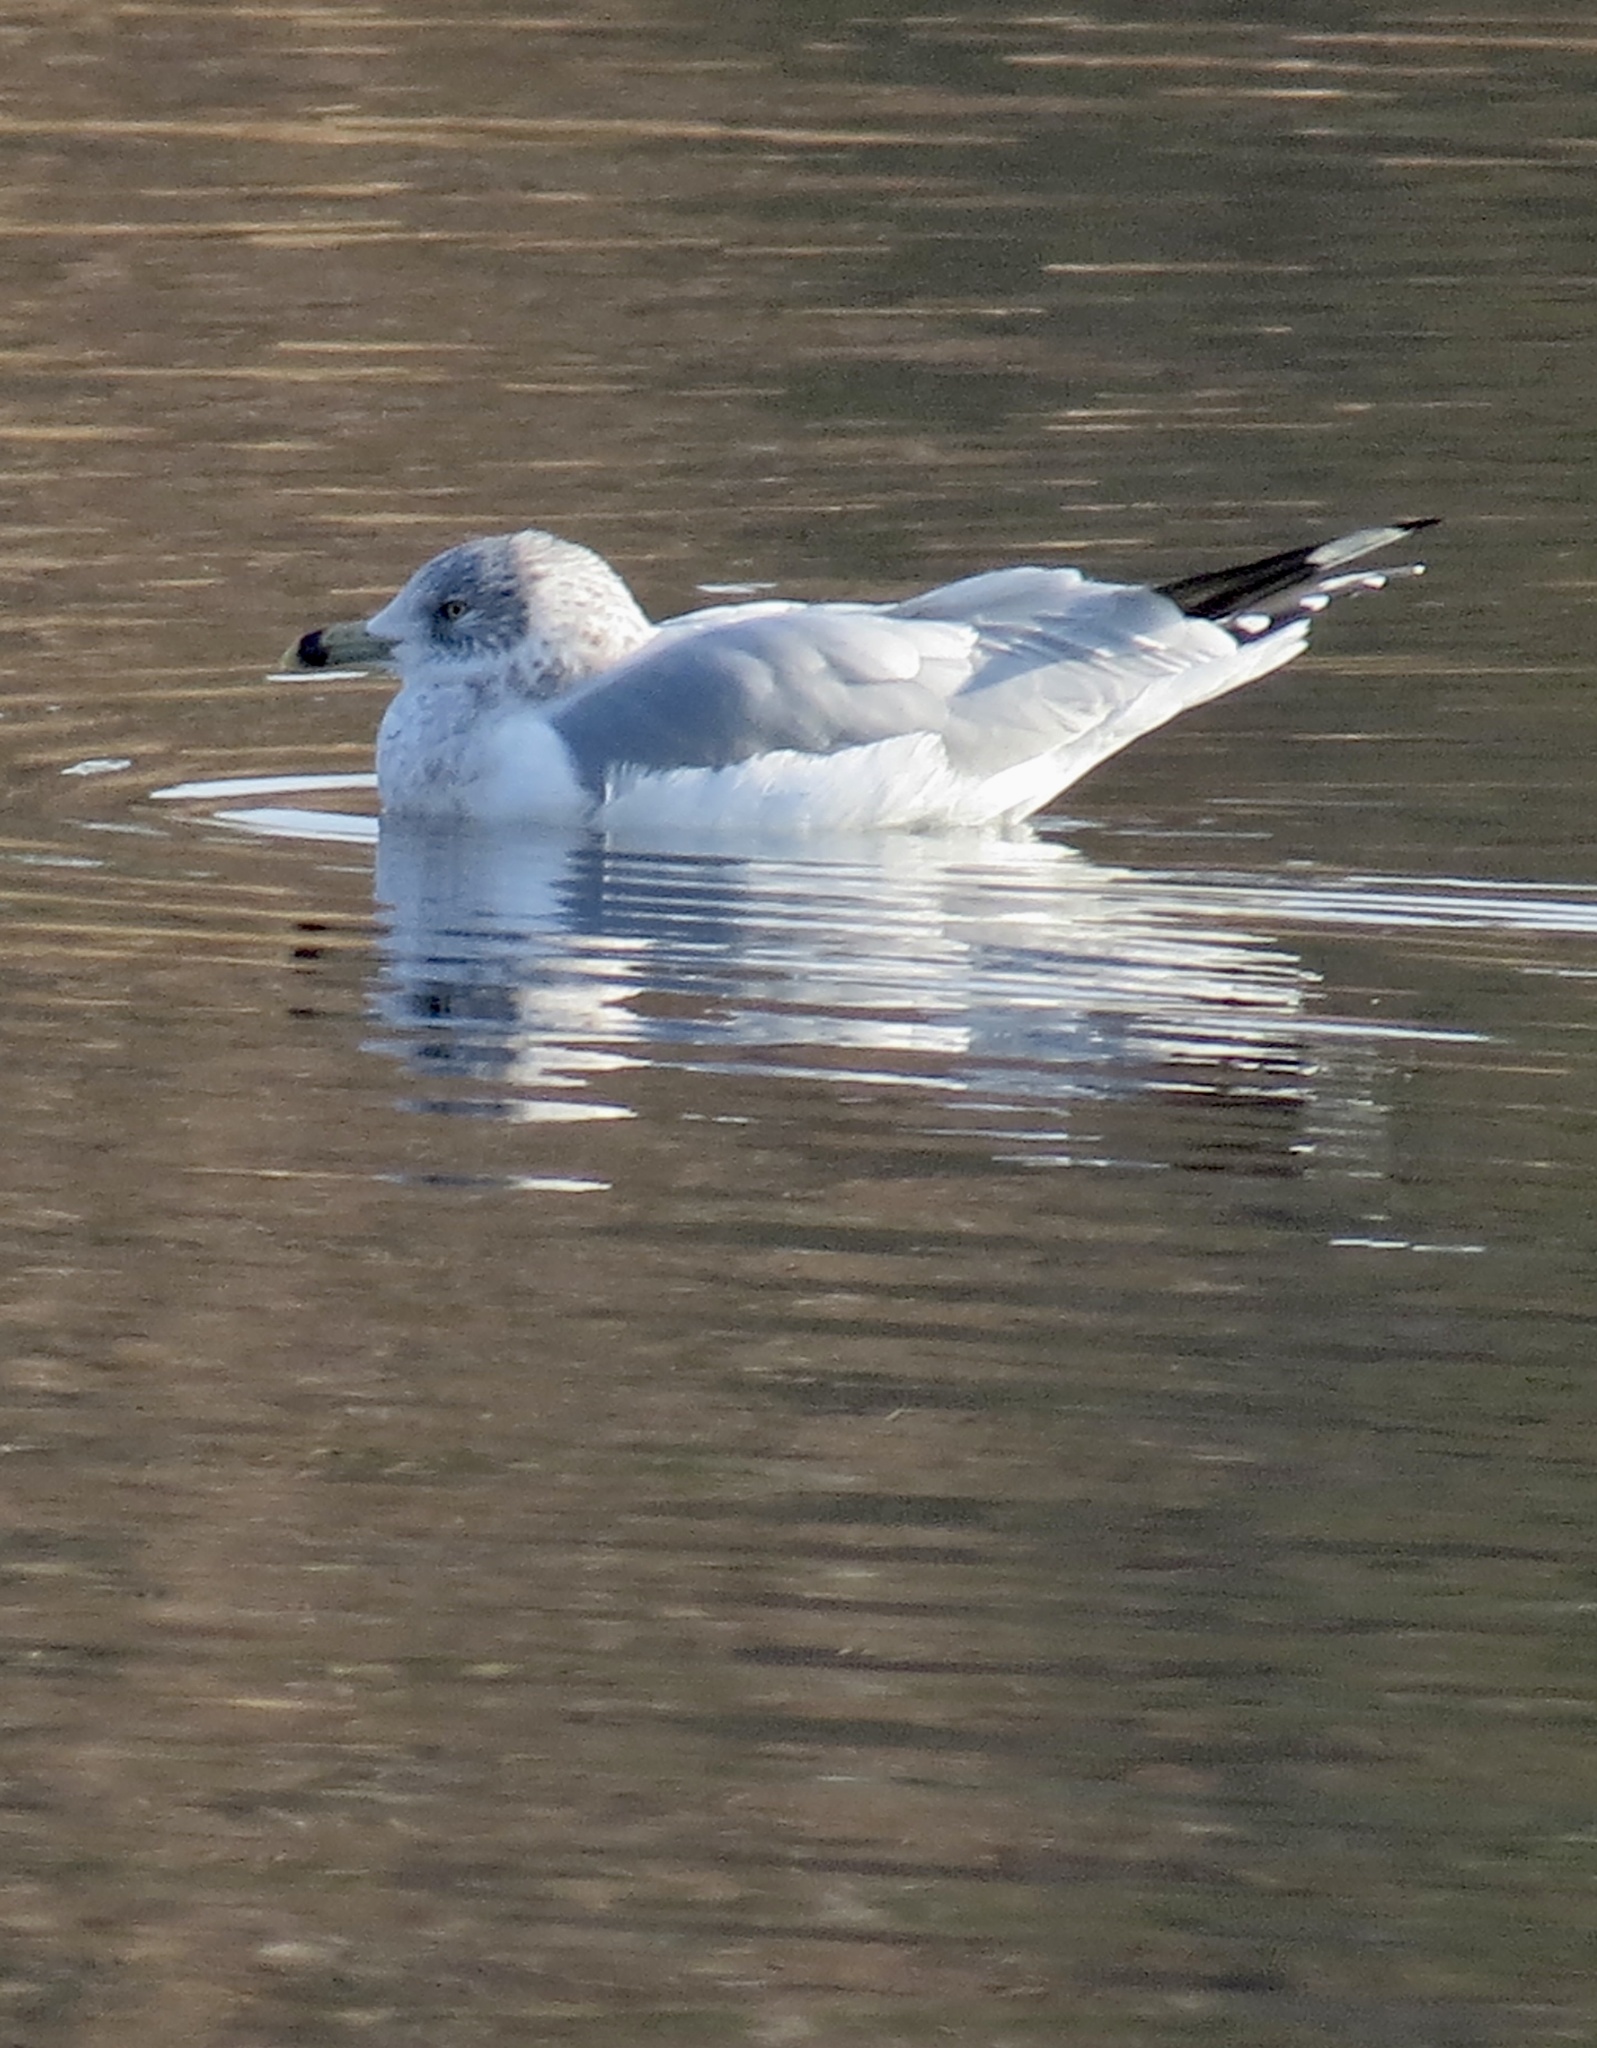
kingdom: Animalia
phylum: Chordata
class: Aves
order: Charadriiformes
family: Laridae
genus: Larus
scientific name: Larus delawarensis
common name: Ring-billed gull
